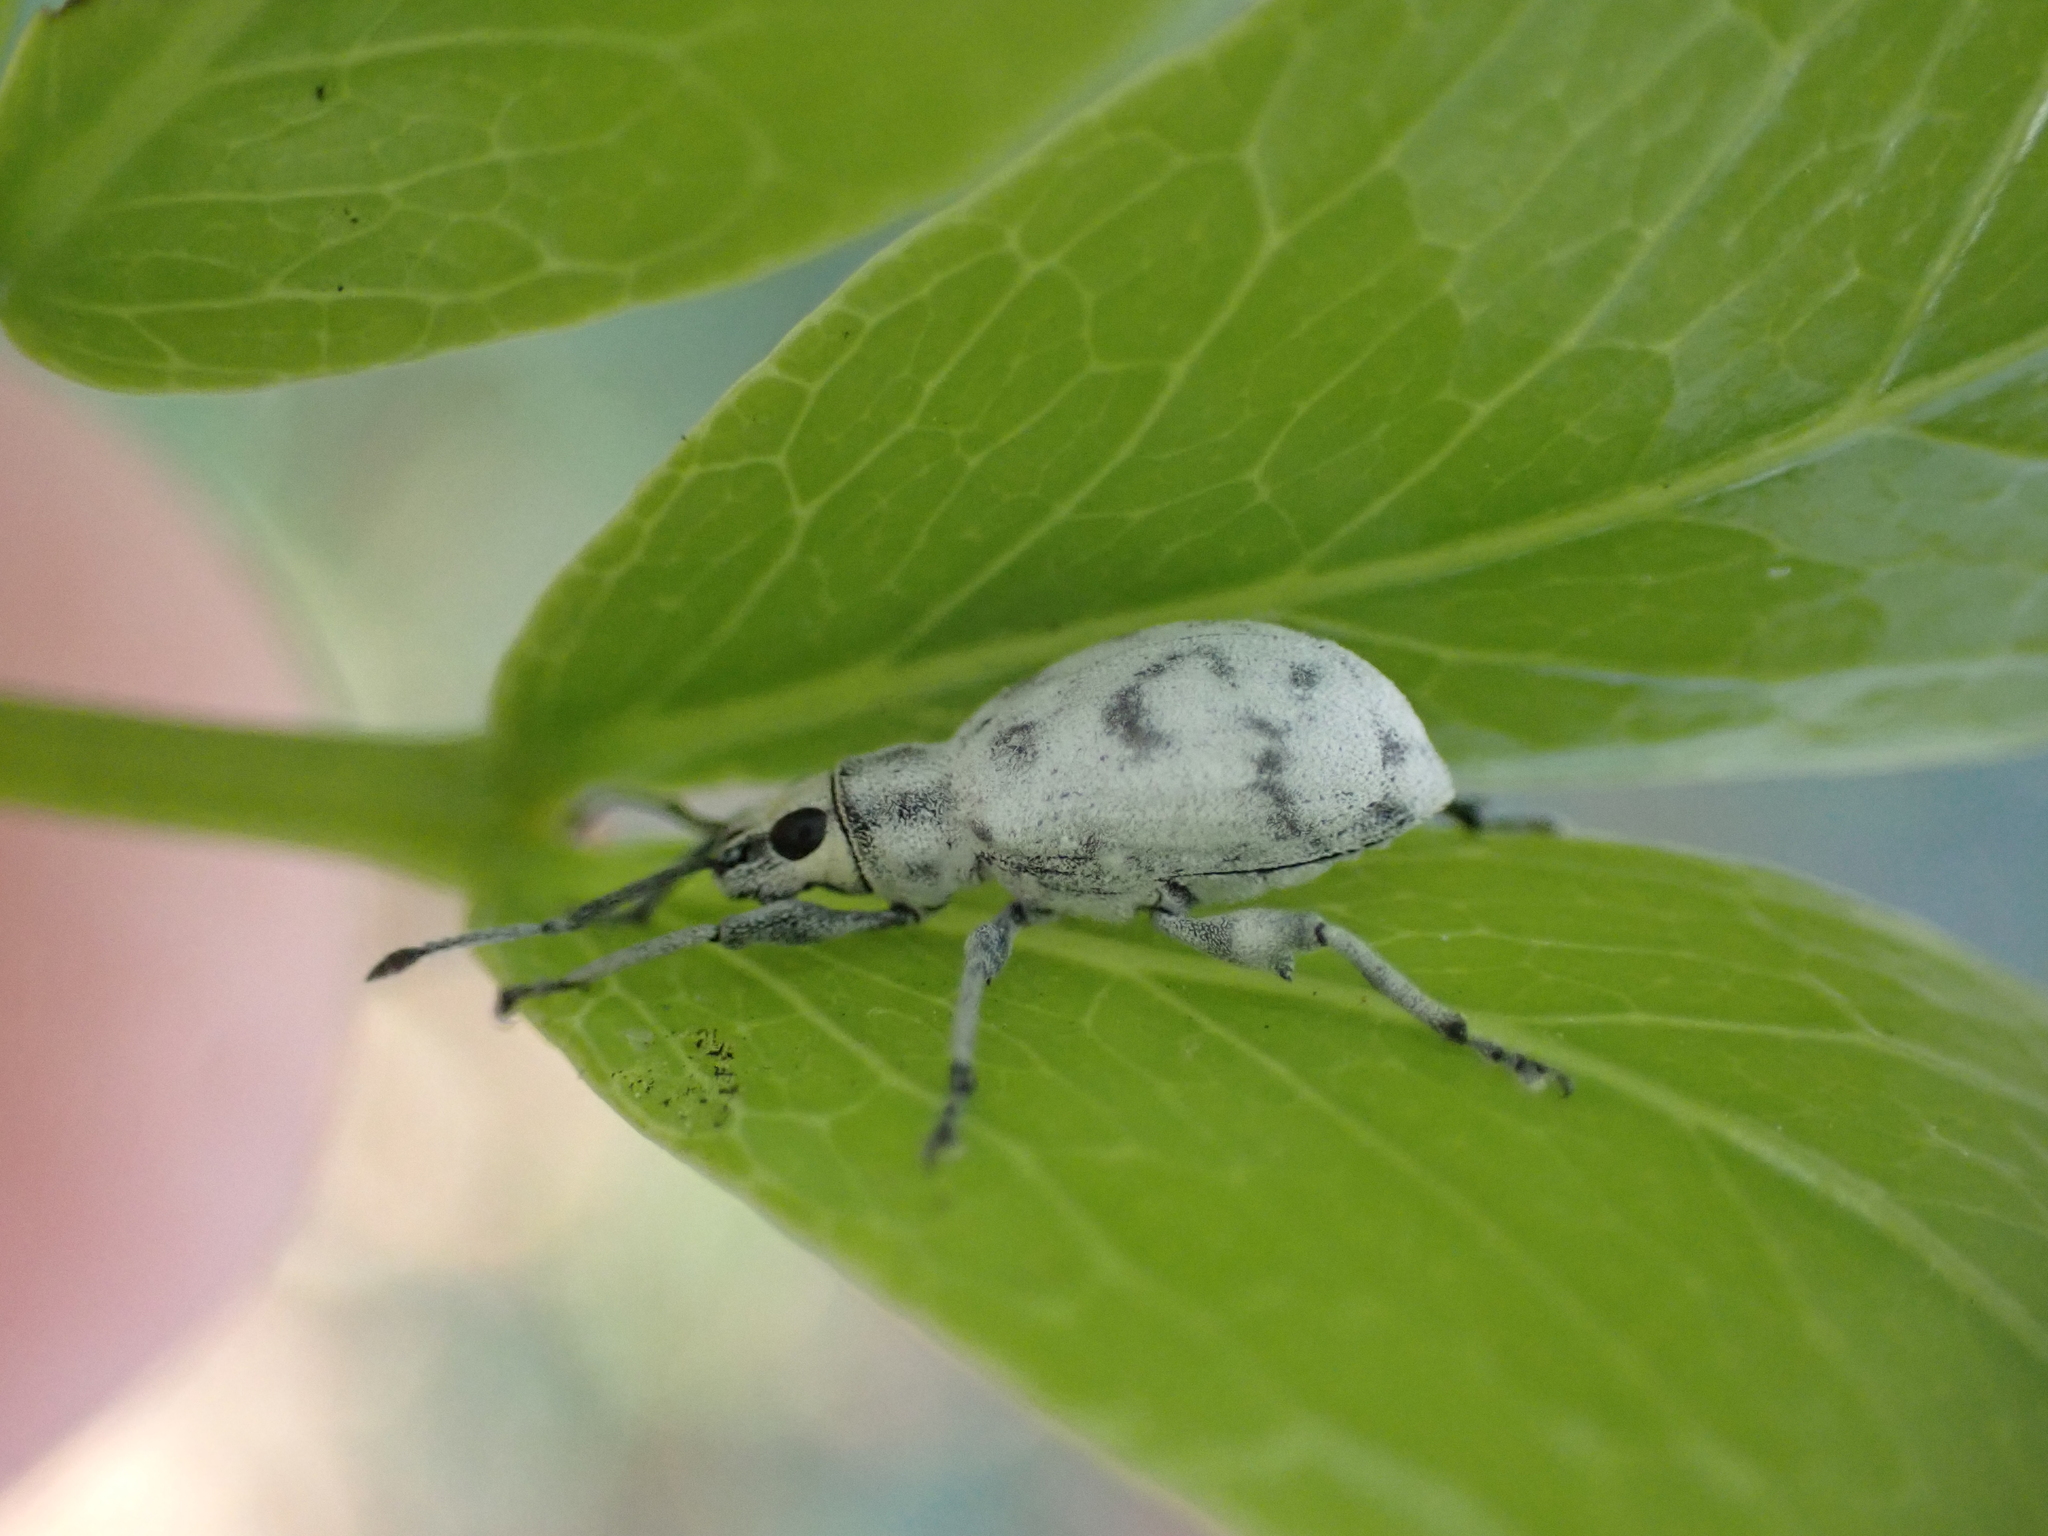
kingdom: Animalia
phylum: Arthropoda
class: Insecta
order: Coleoptera
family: Curculionidae
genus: Myllocerus
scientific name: Myllocerus undecimpustulatus
